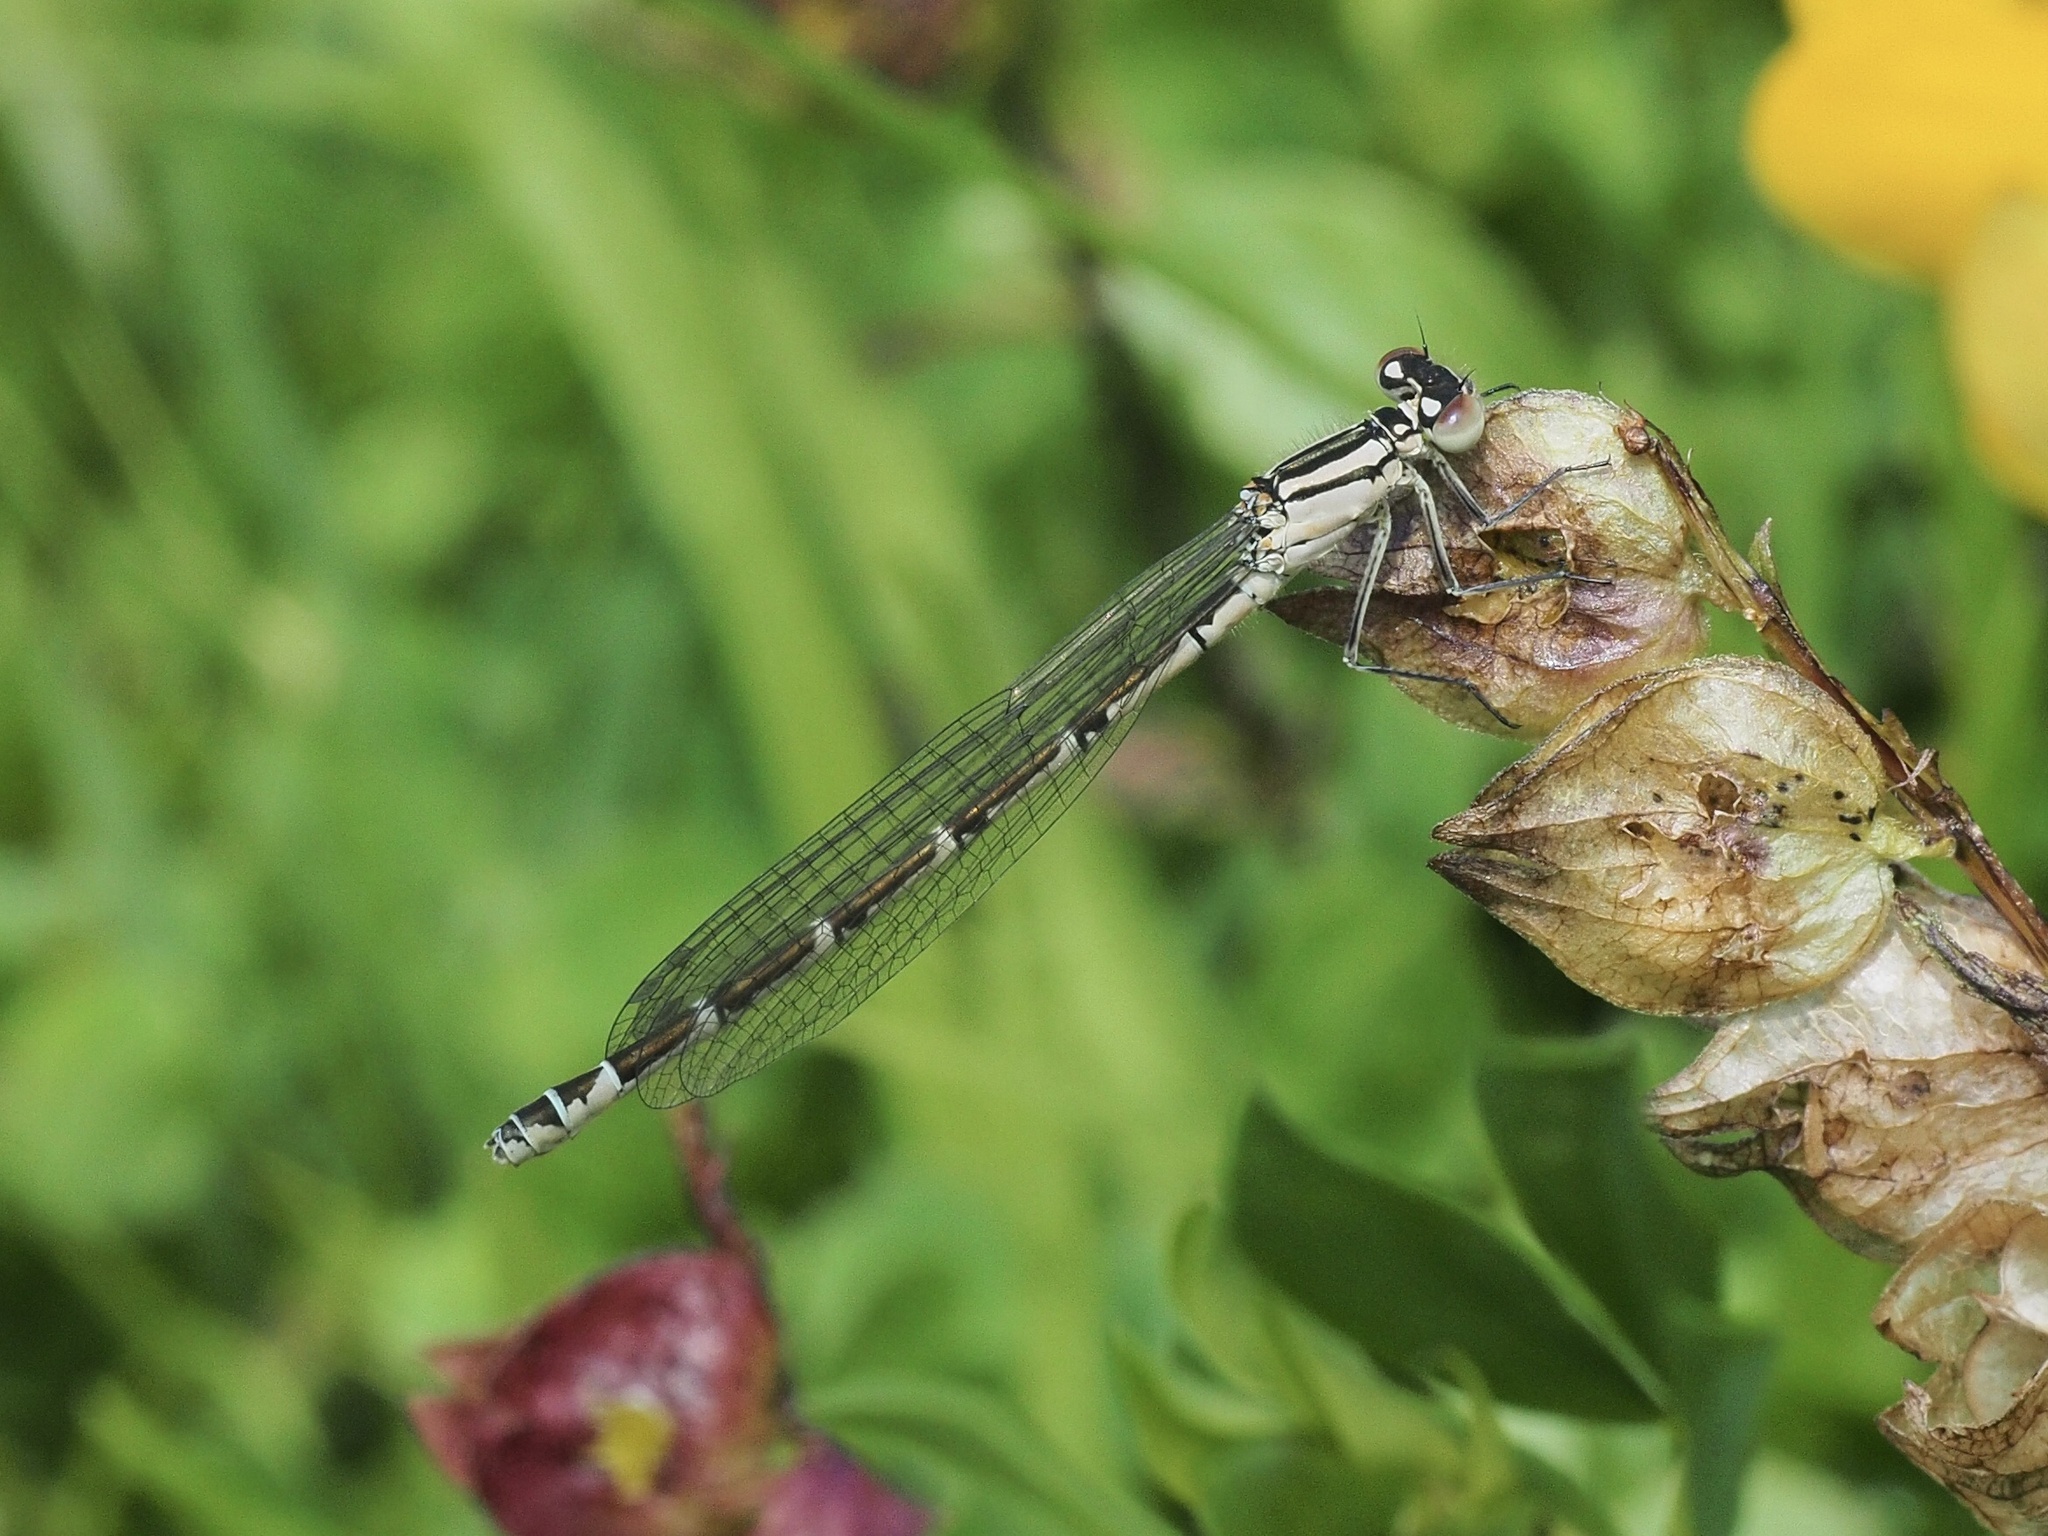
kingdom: Animalia
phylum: Arthropoda
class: Insecta
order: Odonata
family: Coenagrionidae
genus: Enallagma
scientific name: Enallagma cyathigerum
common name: Common blue damselfly
